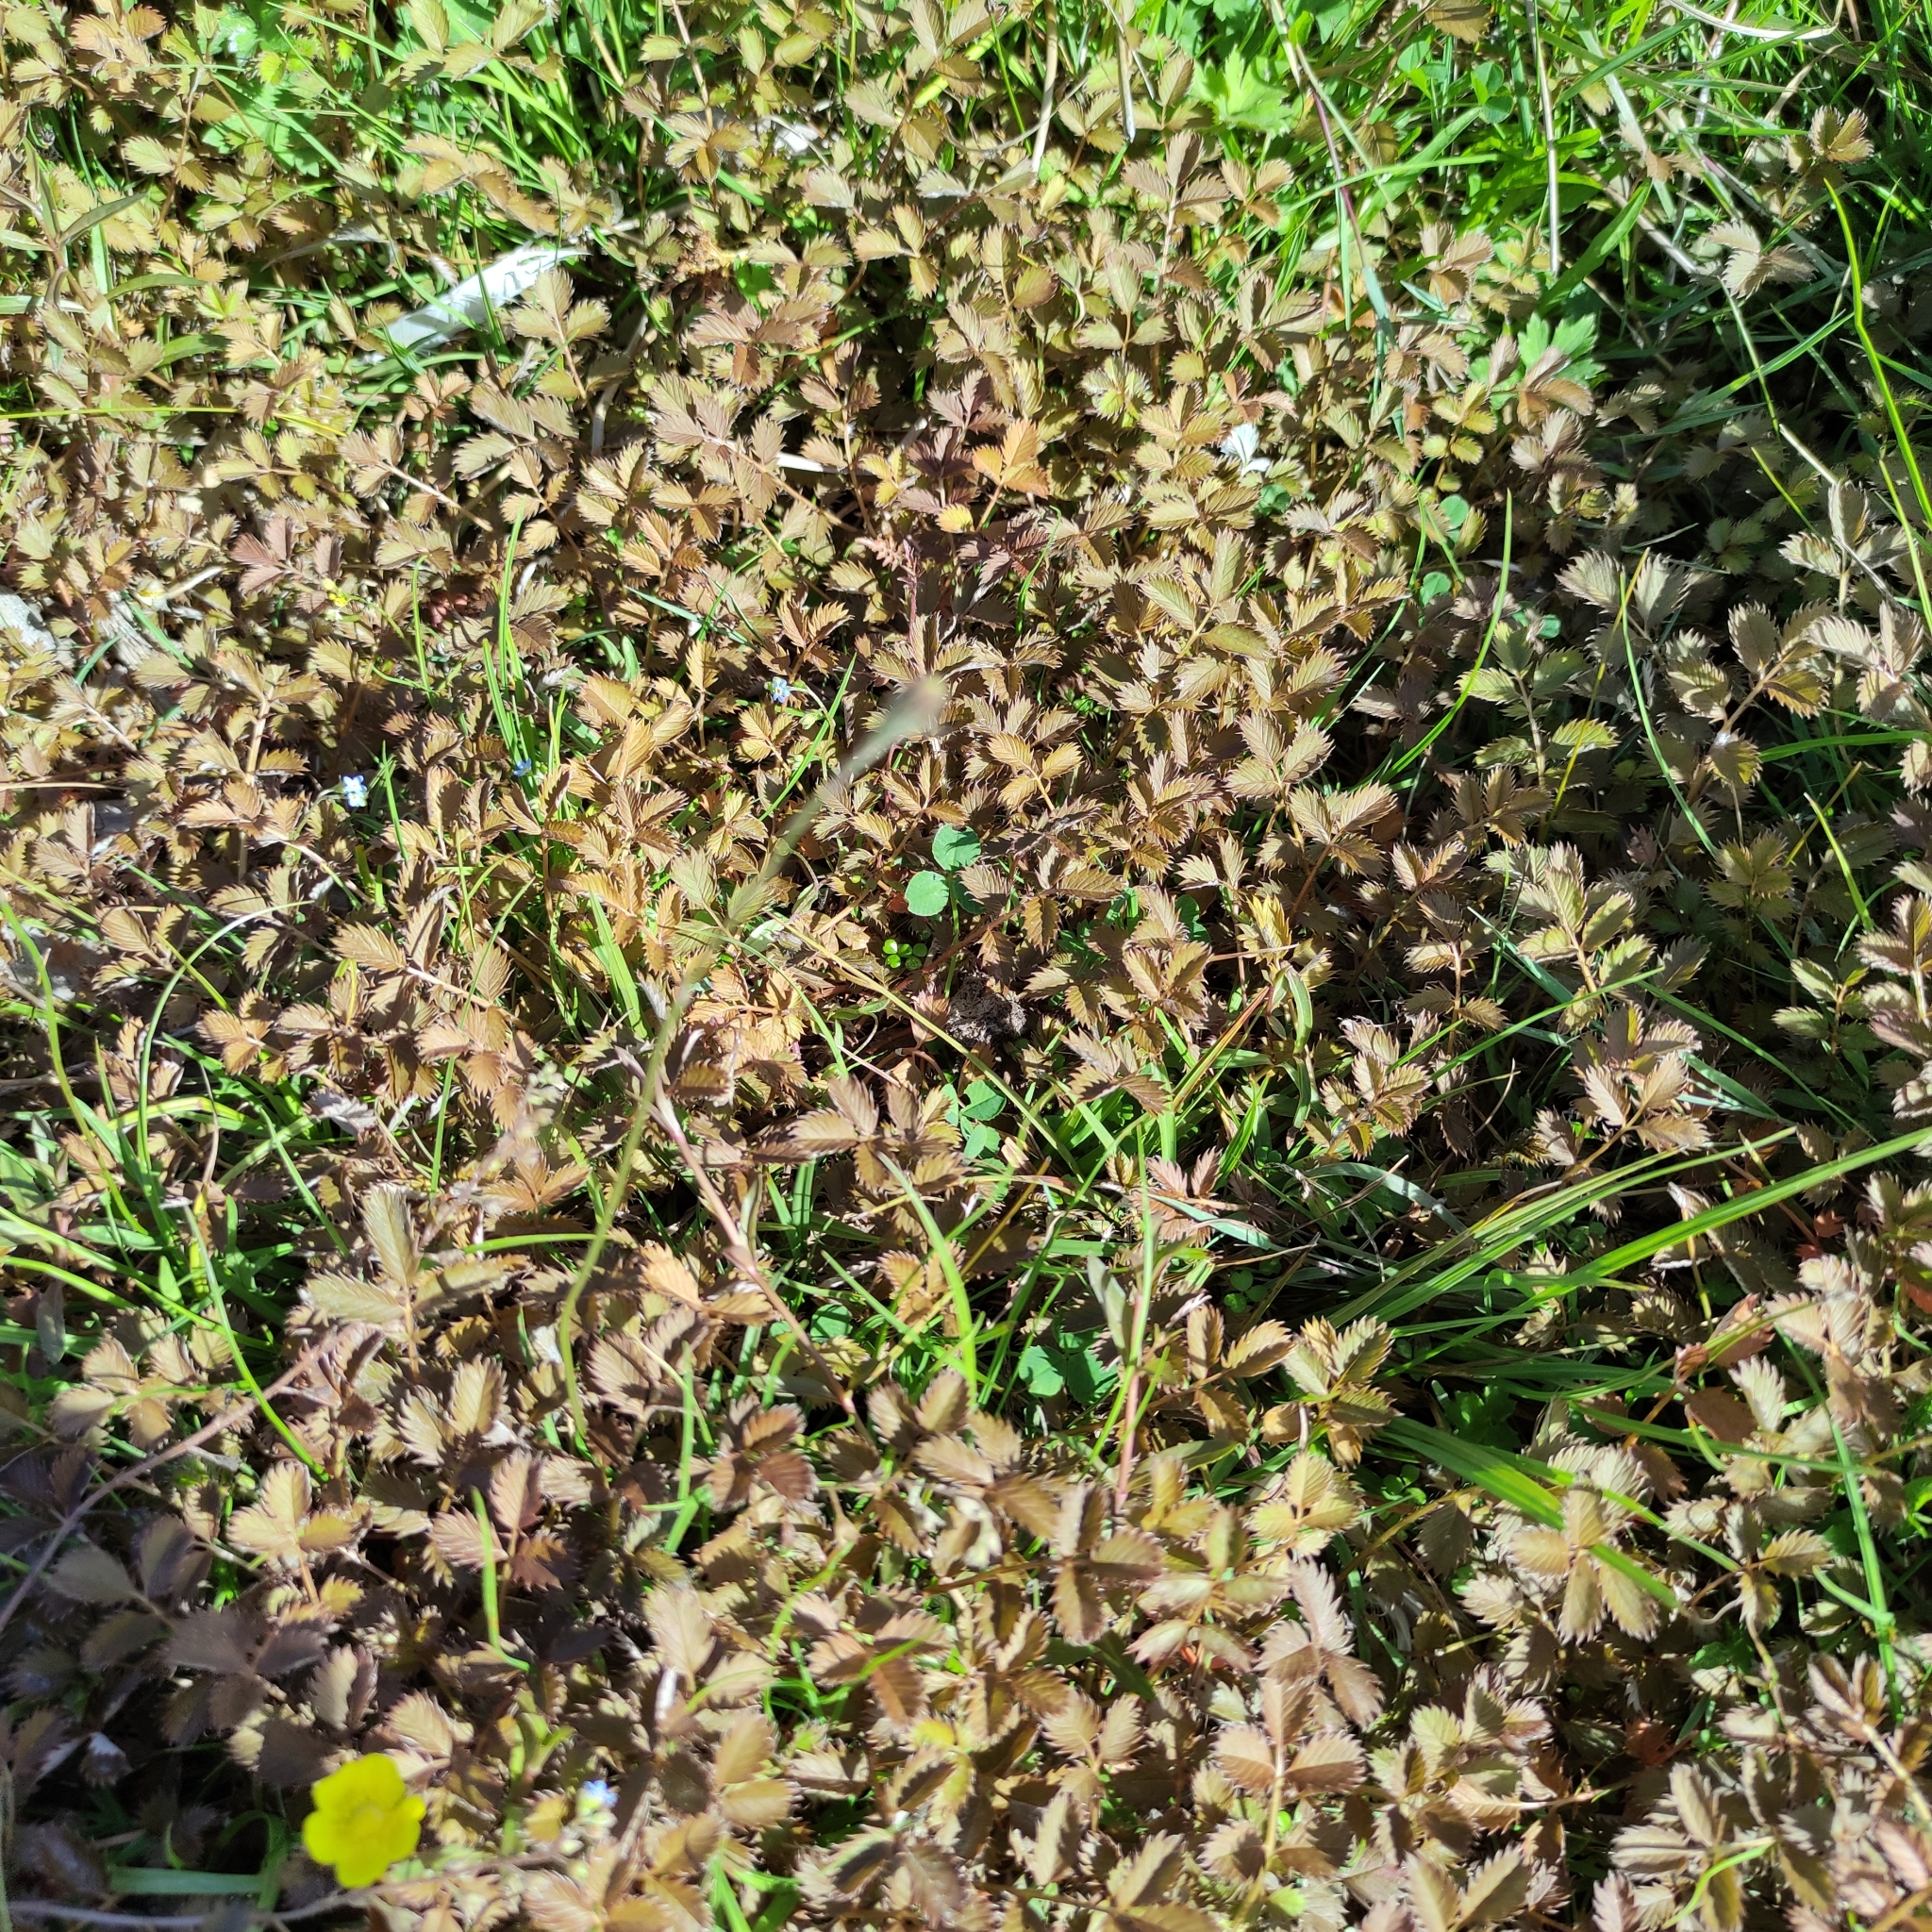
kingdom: Plantae
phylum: Tracheophyta
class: Magnoliopsida
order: Rosales
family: Rosaceae
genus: Argentina
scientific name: Argentina anserina
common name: Common silverweed
